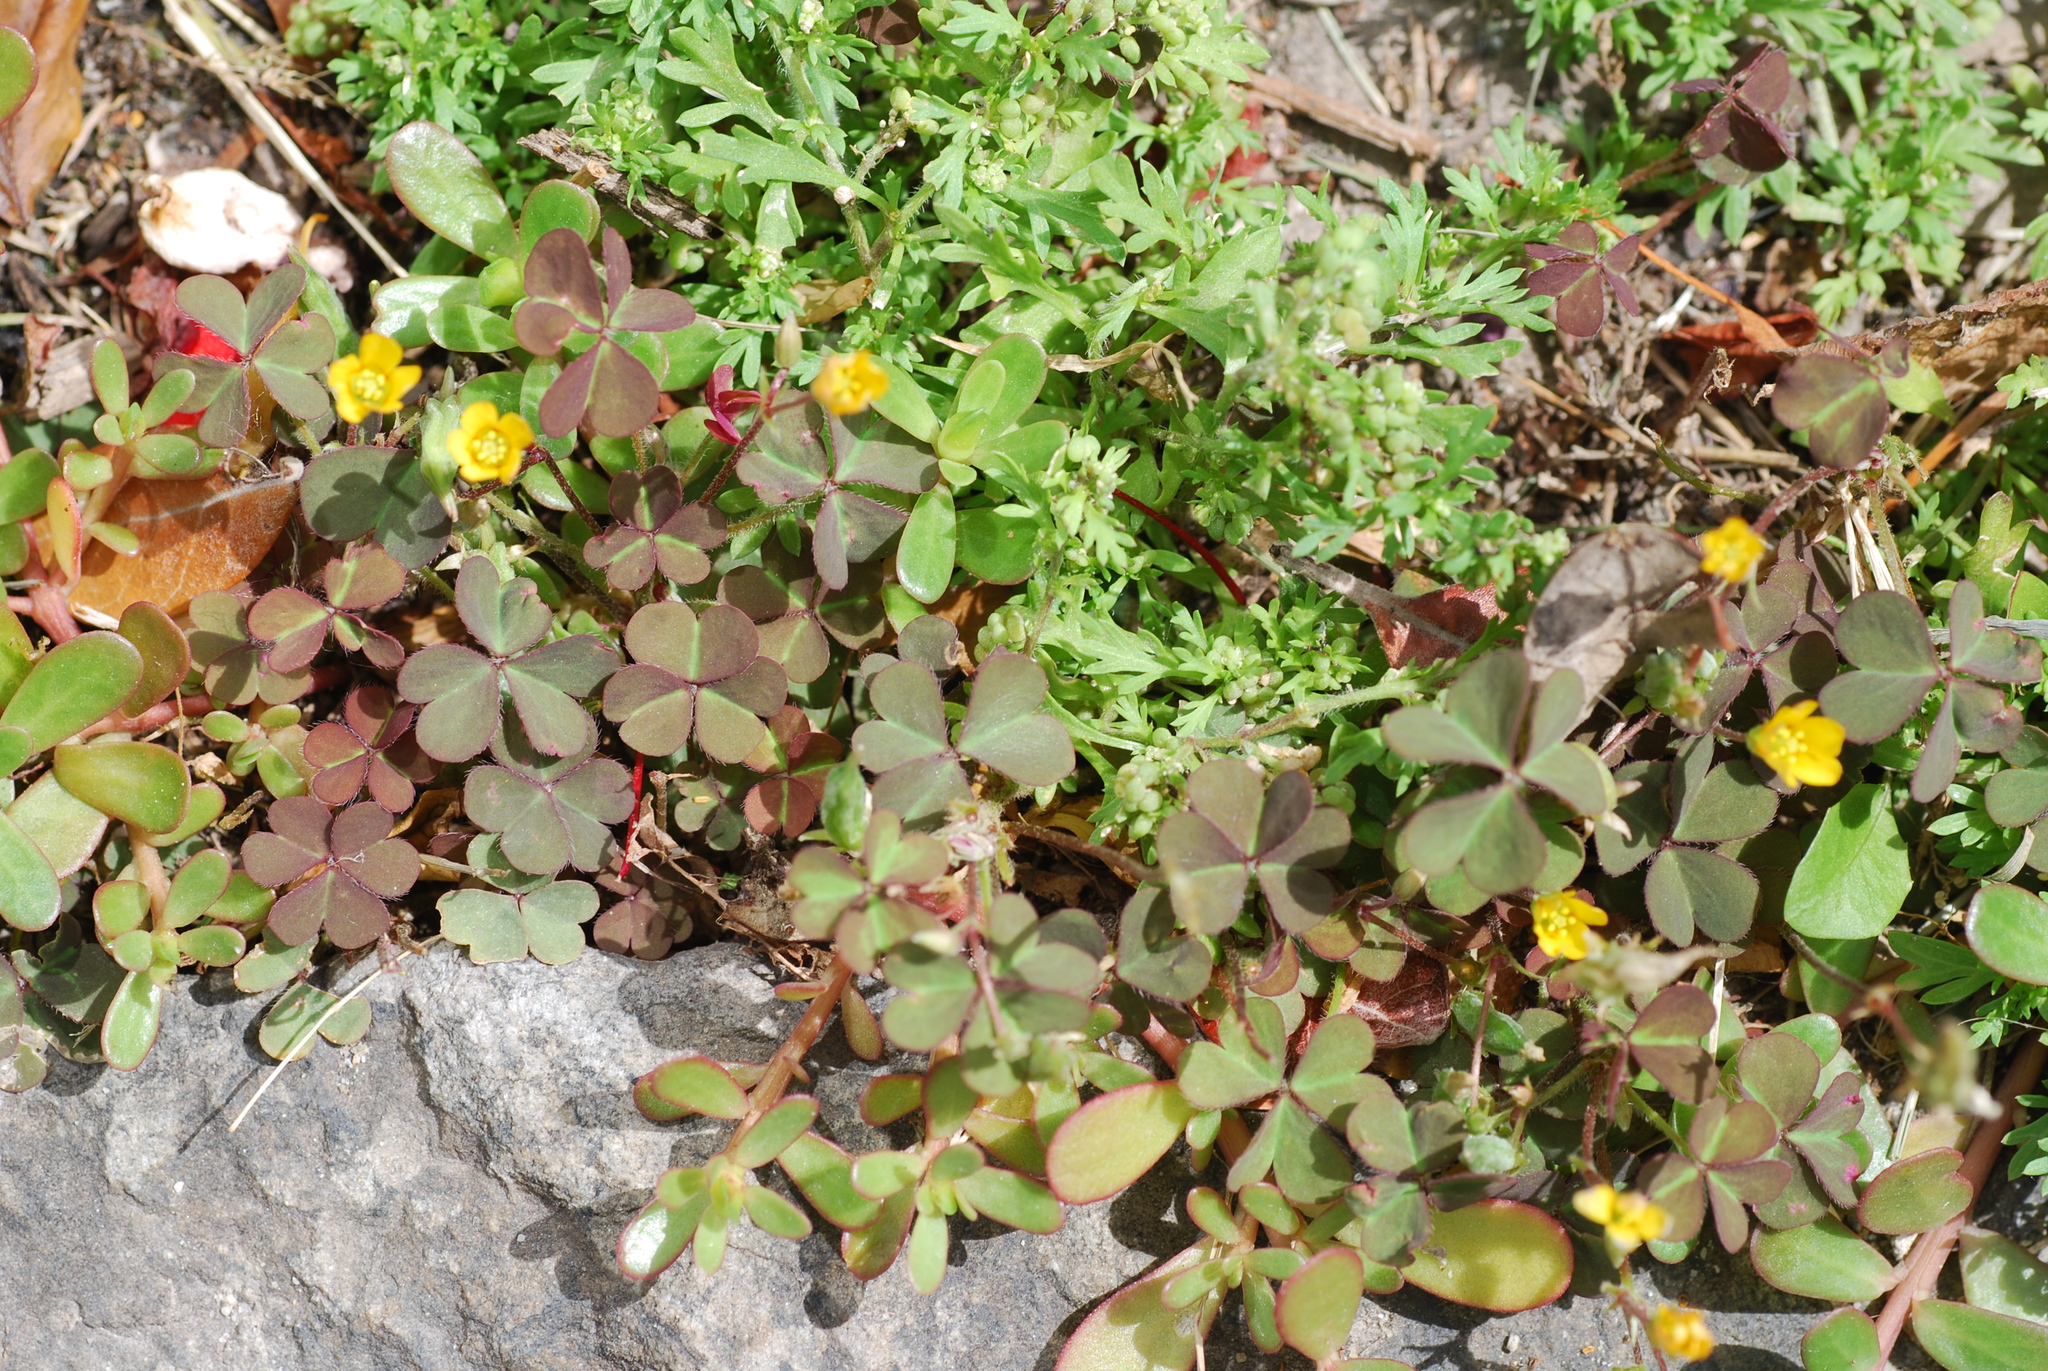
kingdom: Plantae
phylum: Tracheophyta
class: Magnoliopsida
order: Oxalidales
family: Oxalidaceae
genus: Oxalis
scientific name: Oxalis corniculata
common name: Procumbent yellow-sorrel
